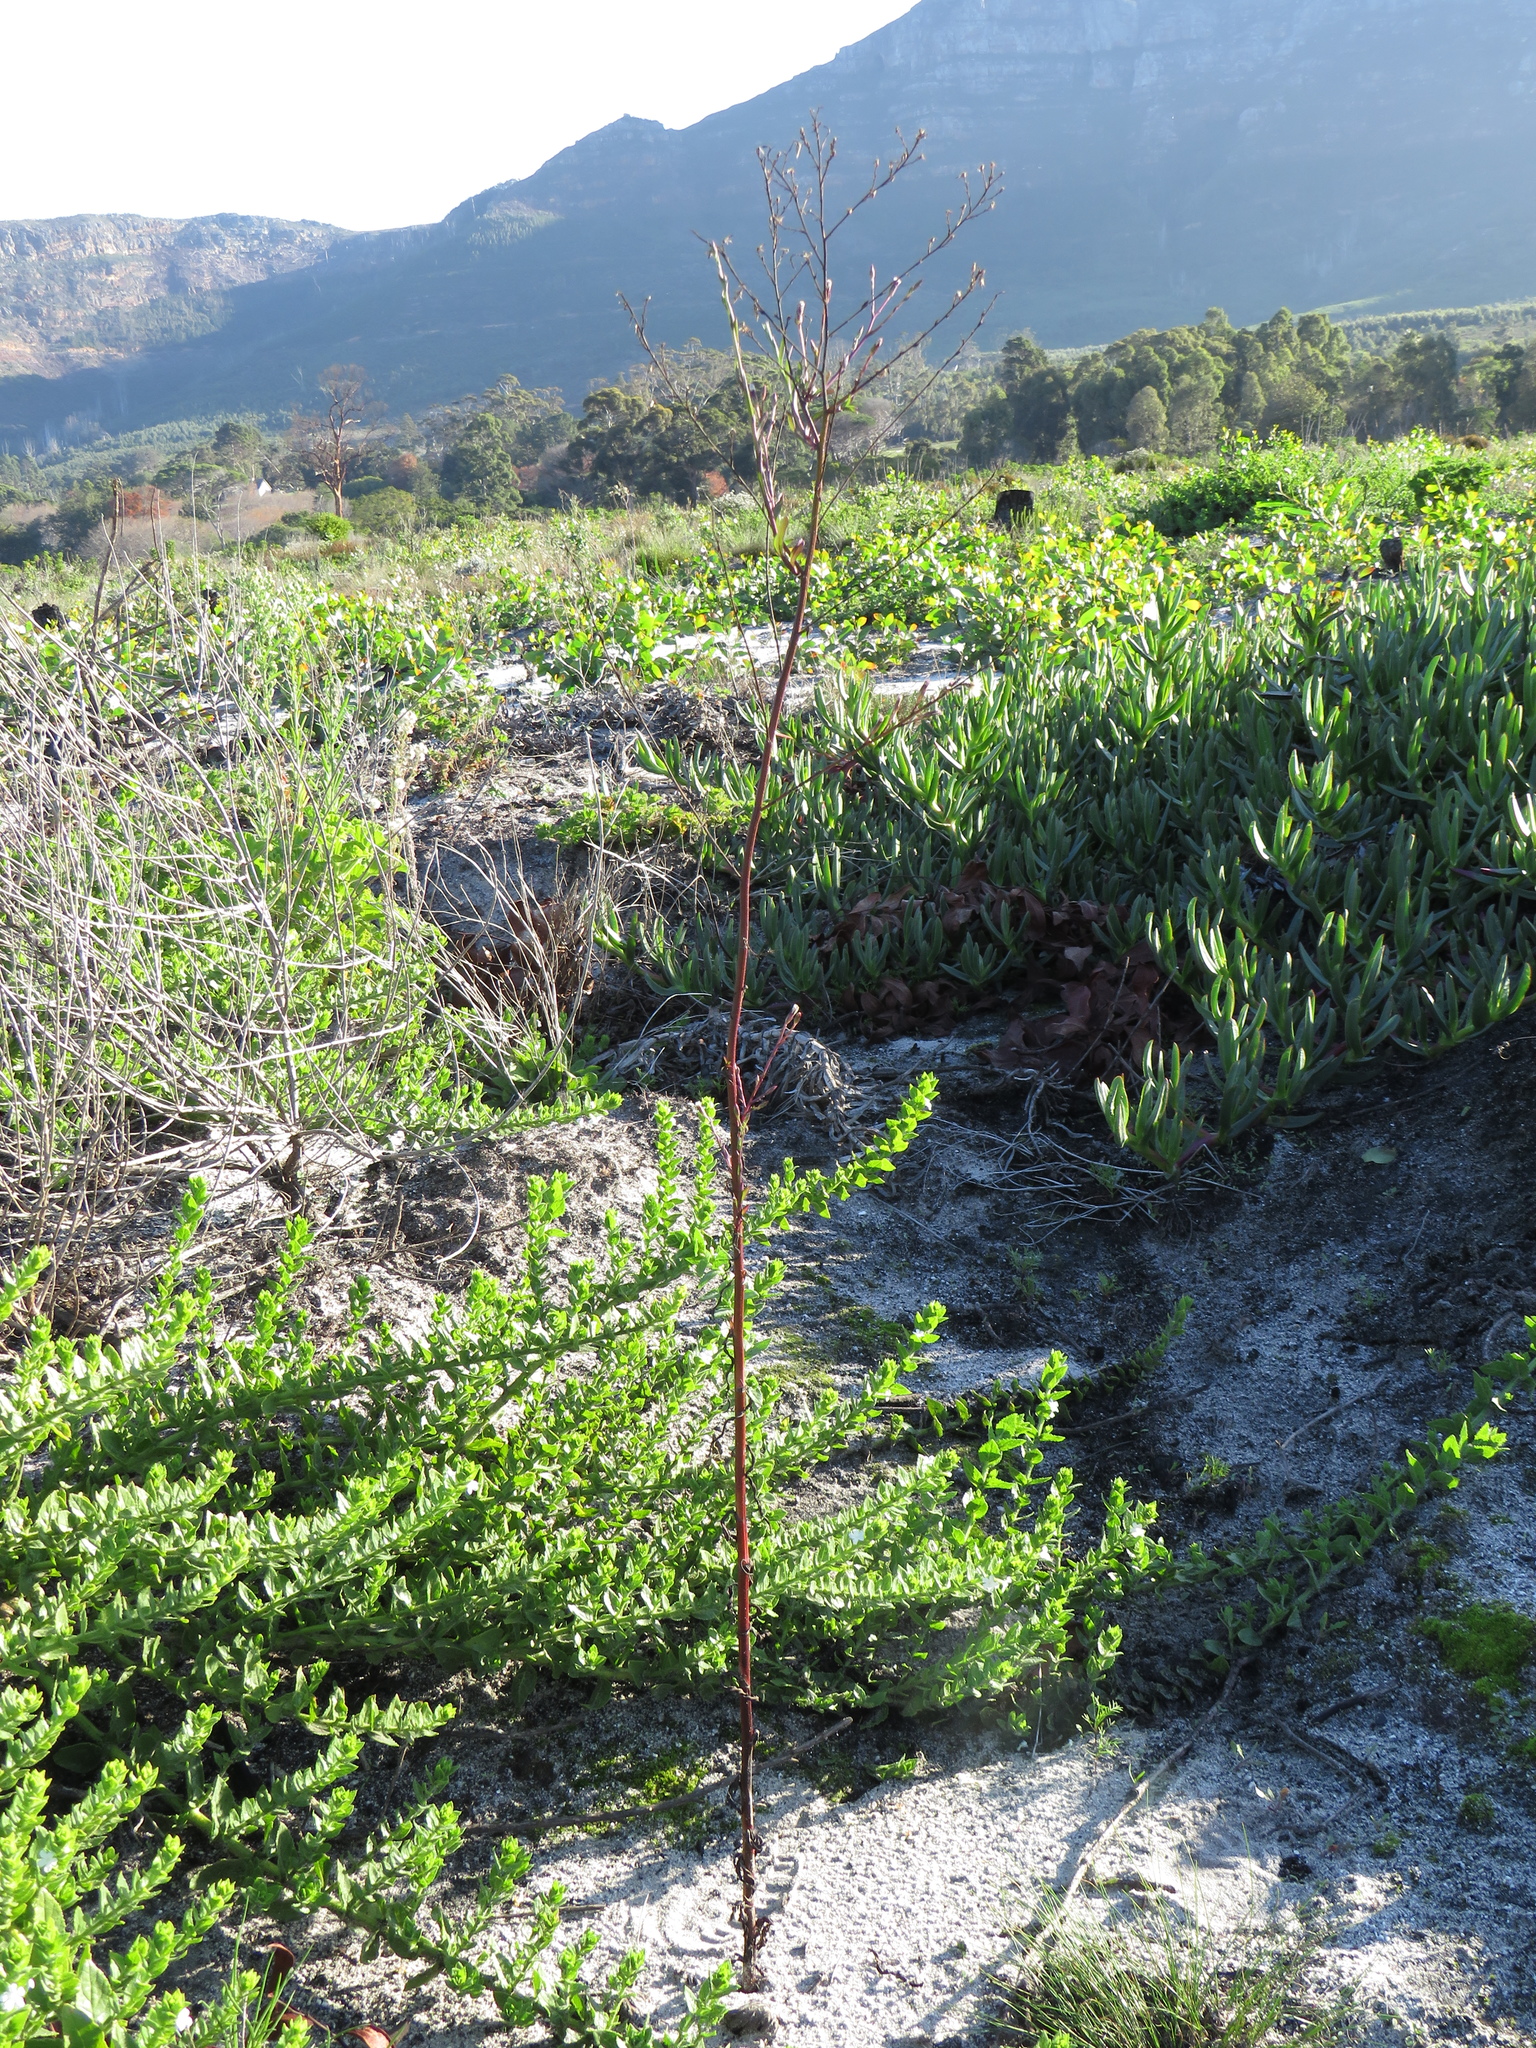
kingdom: Plantae
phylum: Tracheophyta
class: Magnoliopsida
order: Asterales
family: Asteraceae
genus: Symphyotrichum
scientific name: Symphyotrichum squamatum
